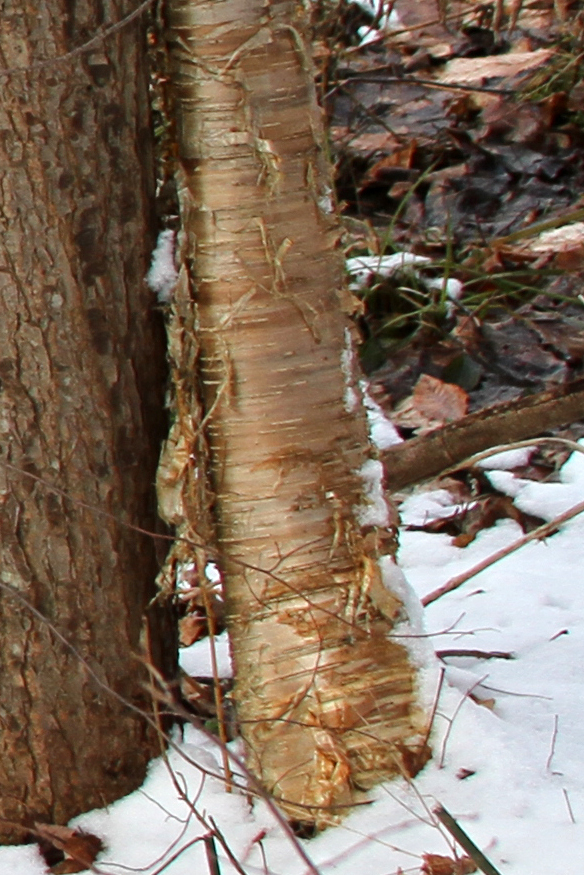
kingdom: Plantae
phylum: Tracheophyta
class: Magnoliopsida
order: Fagales
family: Betulaceae
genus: Betula
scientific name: Betula alleghaniensis
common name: Yellow birch
